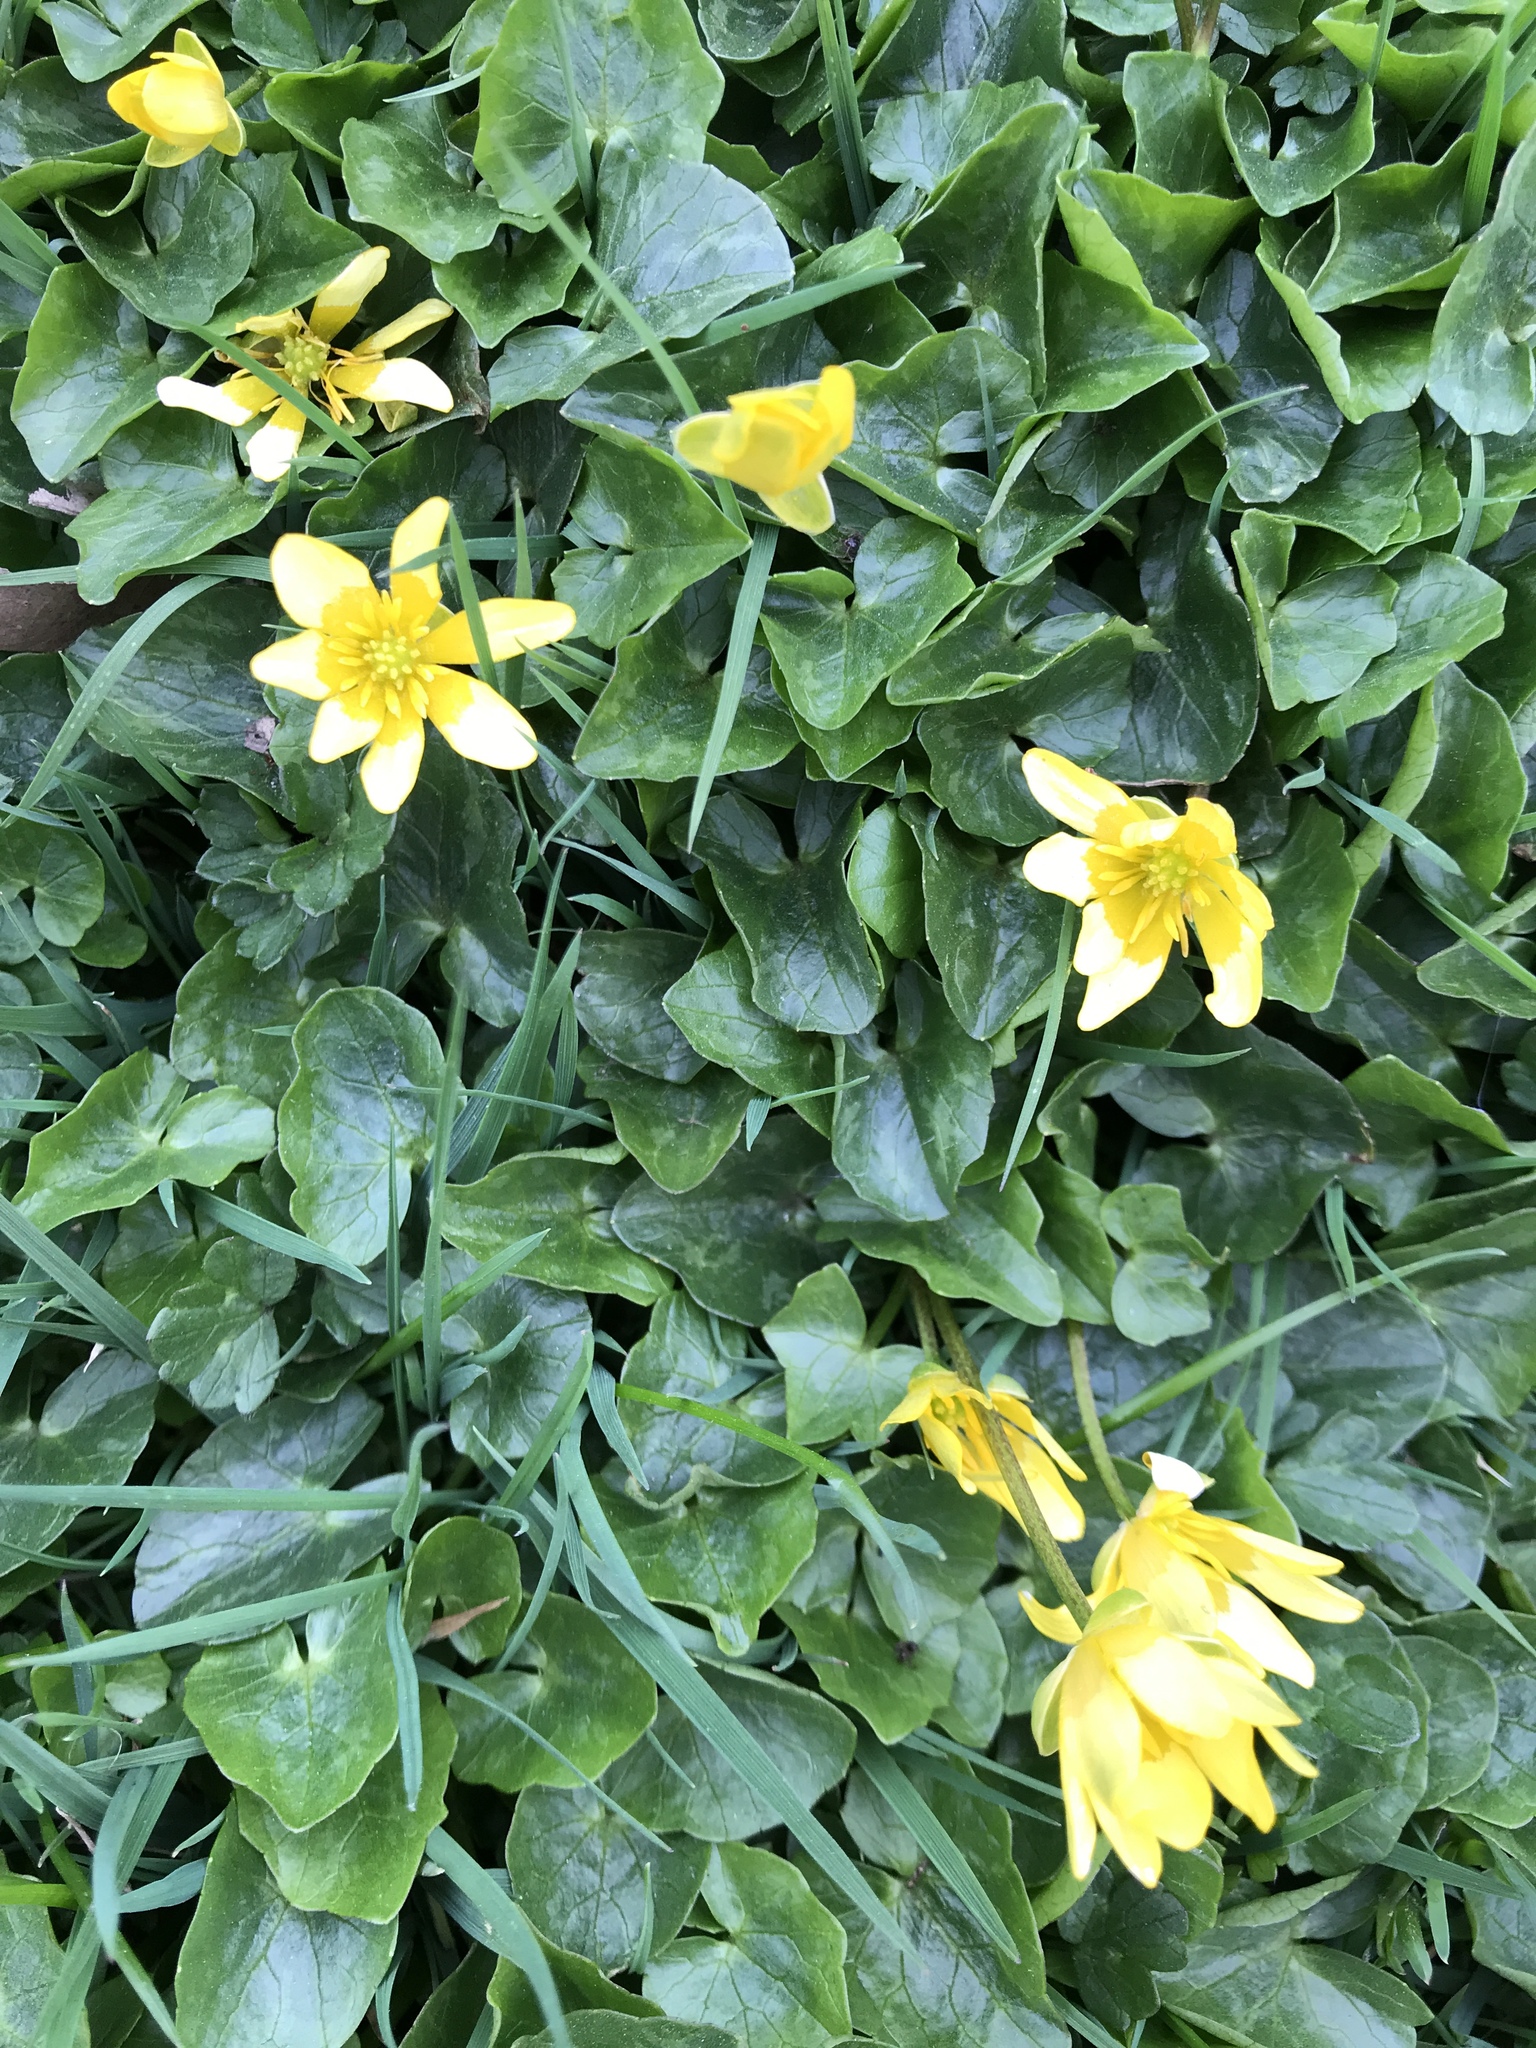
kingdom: Plantae
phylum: Tracheophyta
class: Magnoliopsida
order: Ranunculales
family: Ranunculaceae
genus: Ficaria
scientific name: Ficaria verna
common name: Lesser celandine
